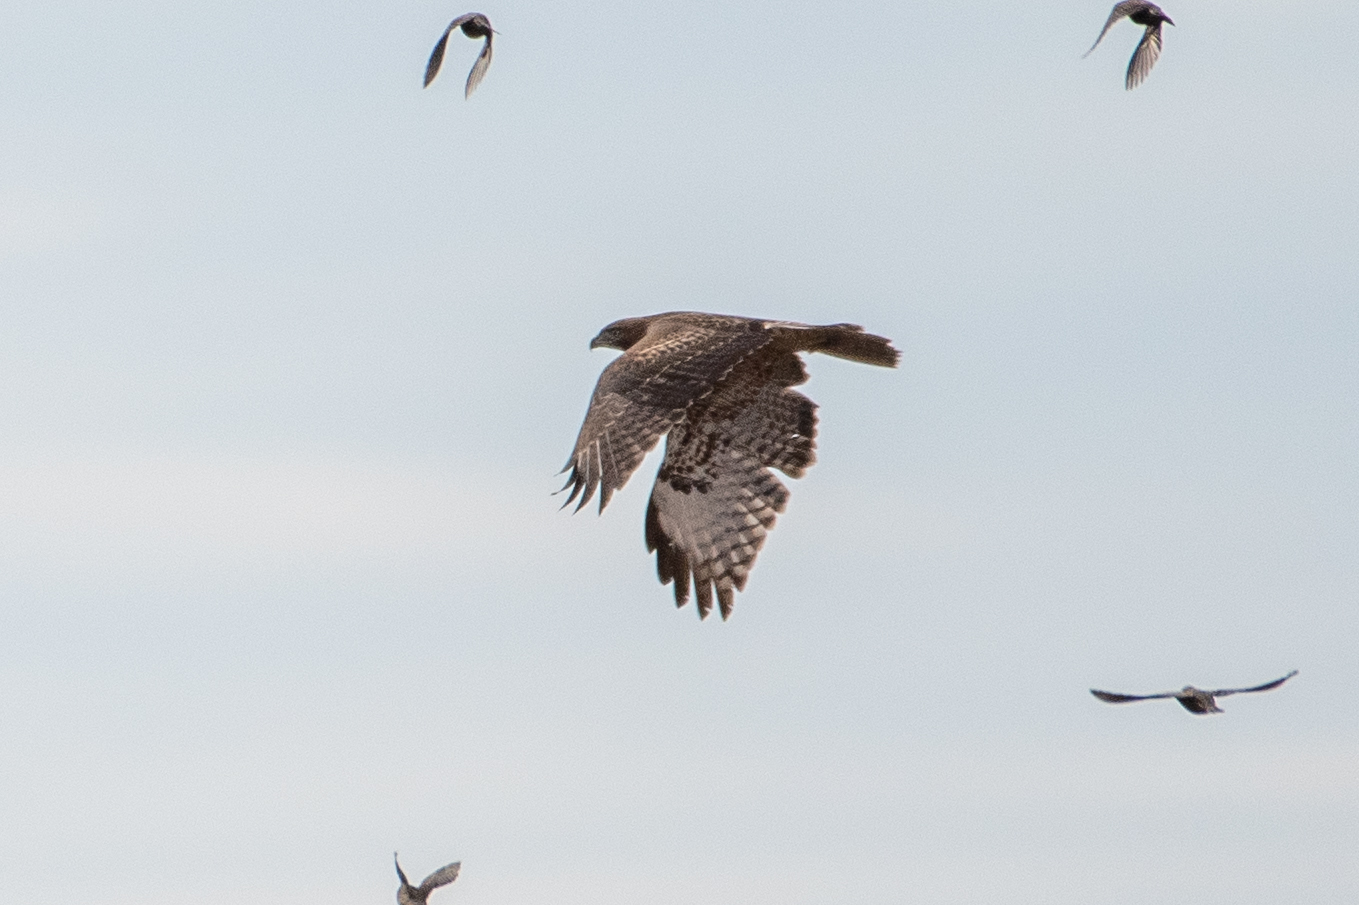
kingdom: Animalia
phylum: Chordata
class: Aves
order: Accipitriformes
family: Accipitridae
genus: Buteo
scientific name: Buteo jamaicensis
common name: Red-tailed hawk
